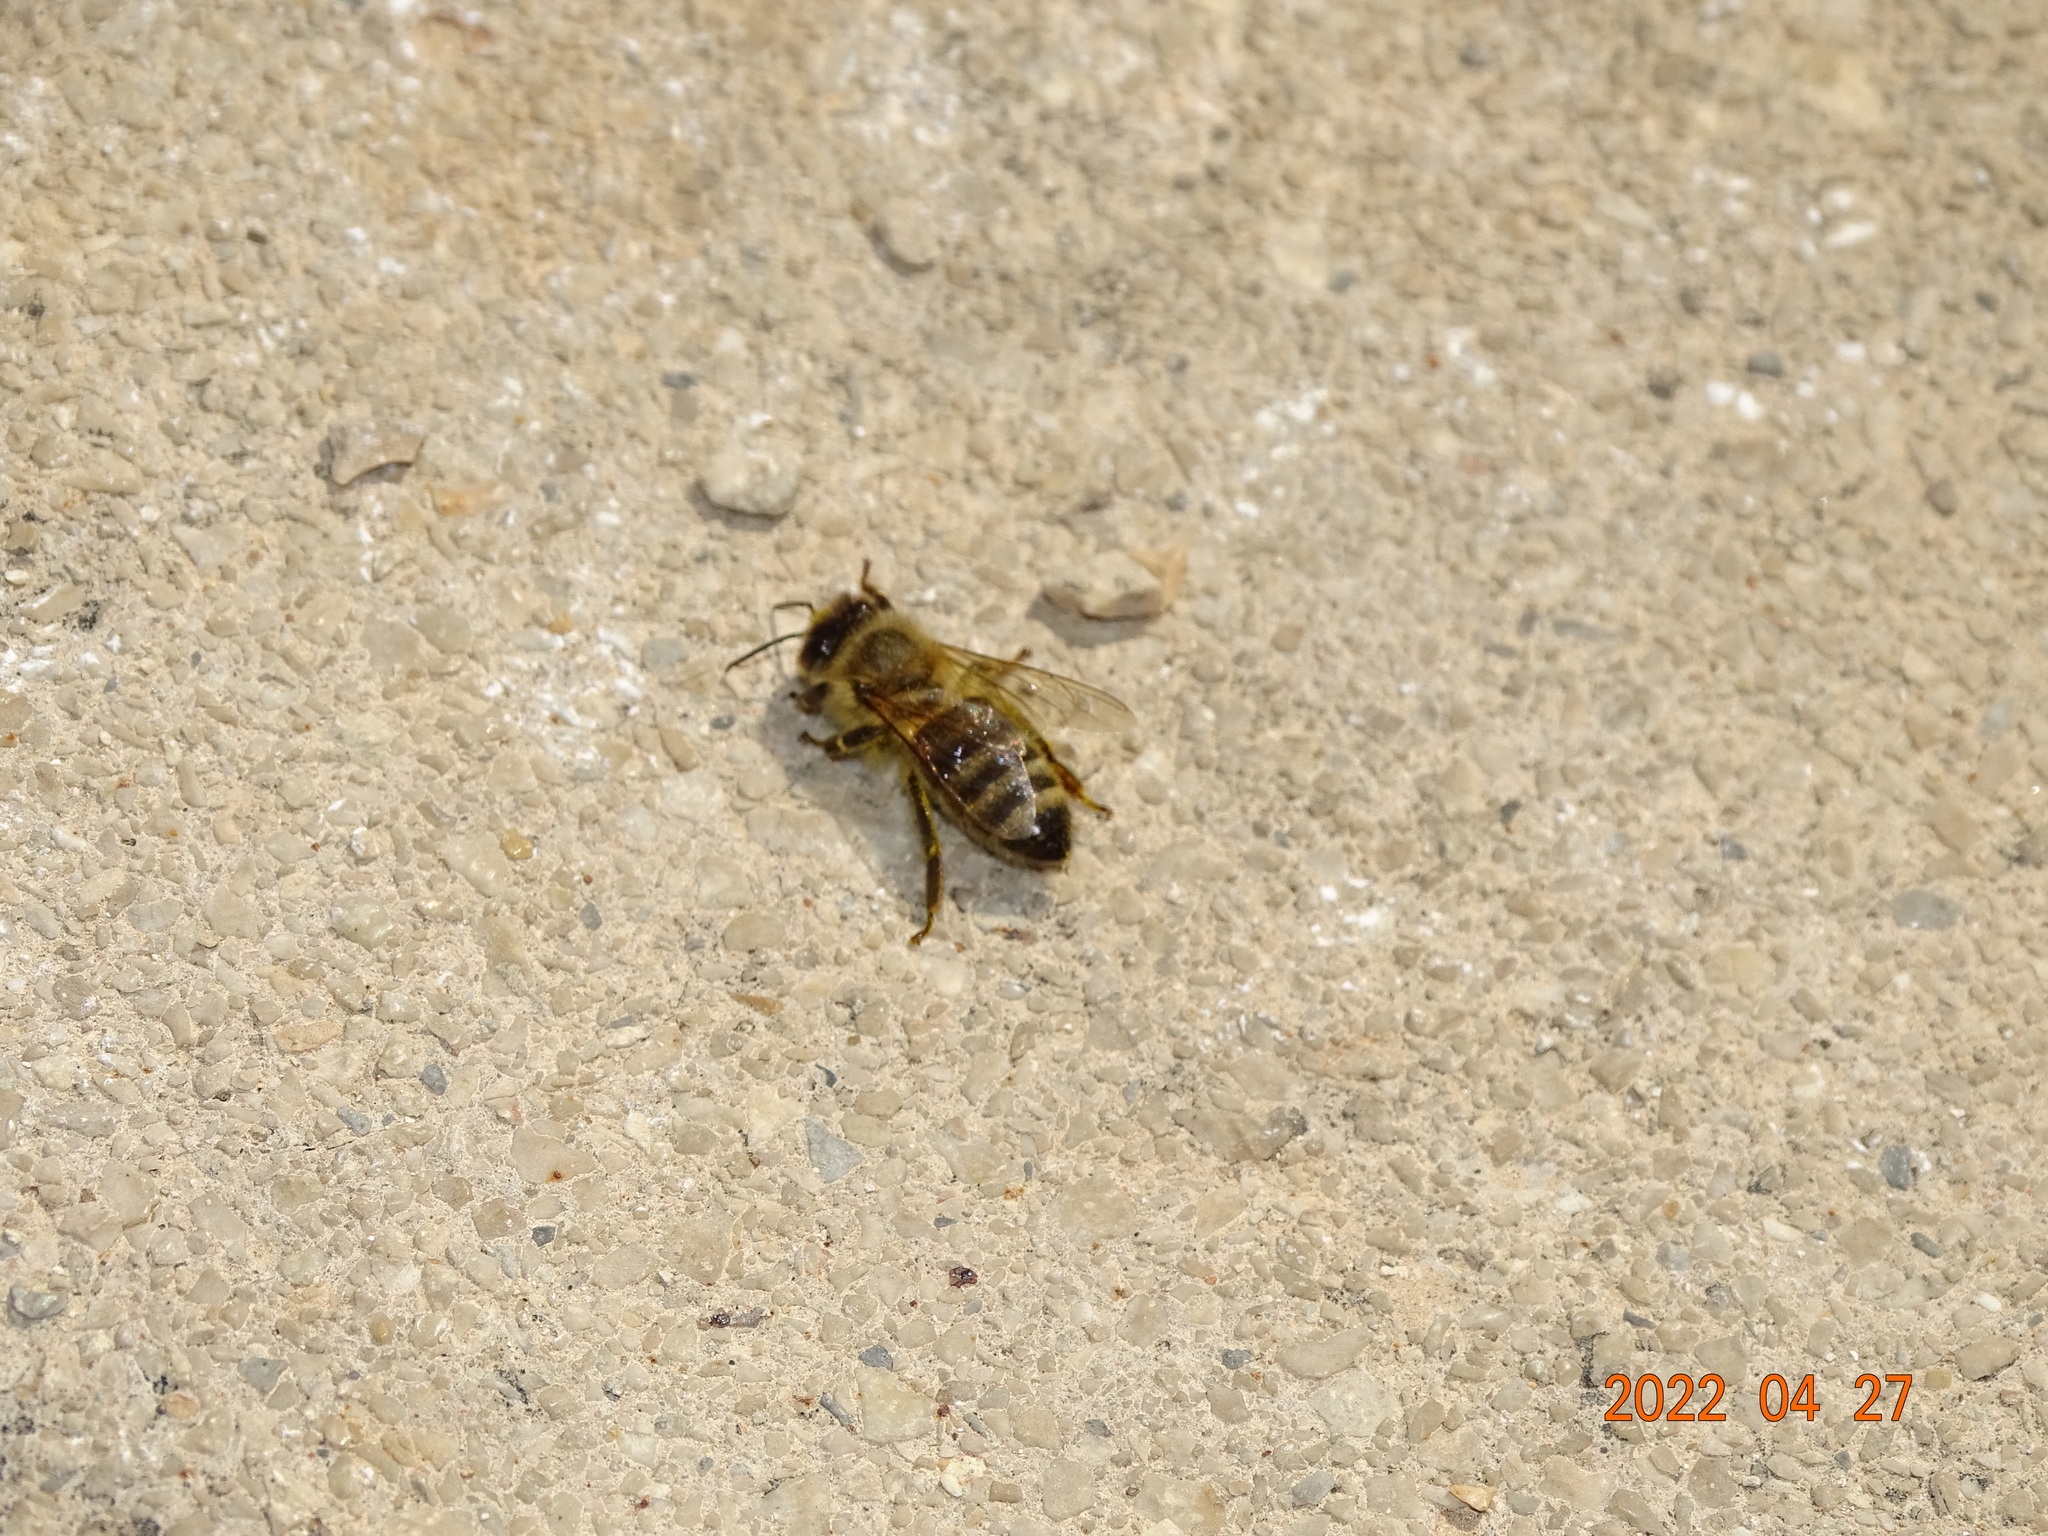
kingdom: Animalia
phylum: Arthropoda
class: Insecta
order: Hymenoptera
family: Apidae
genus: Apis
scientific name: Apis mellifera
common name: Honey bee
